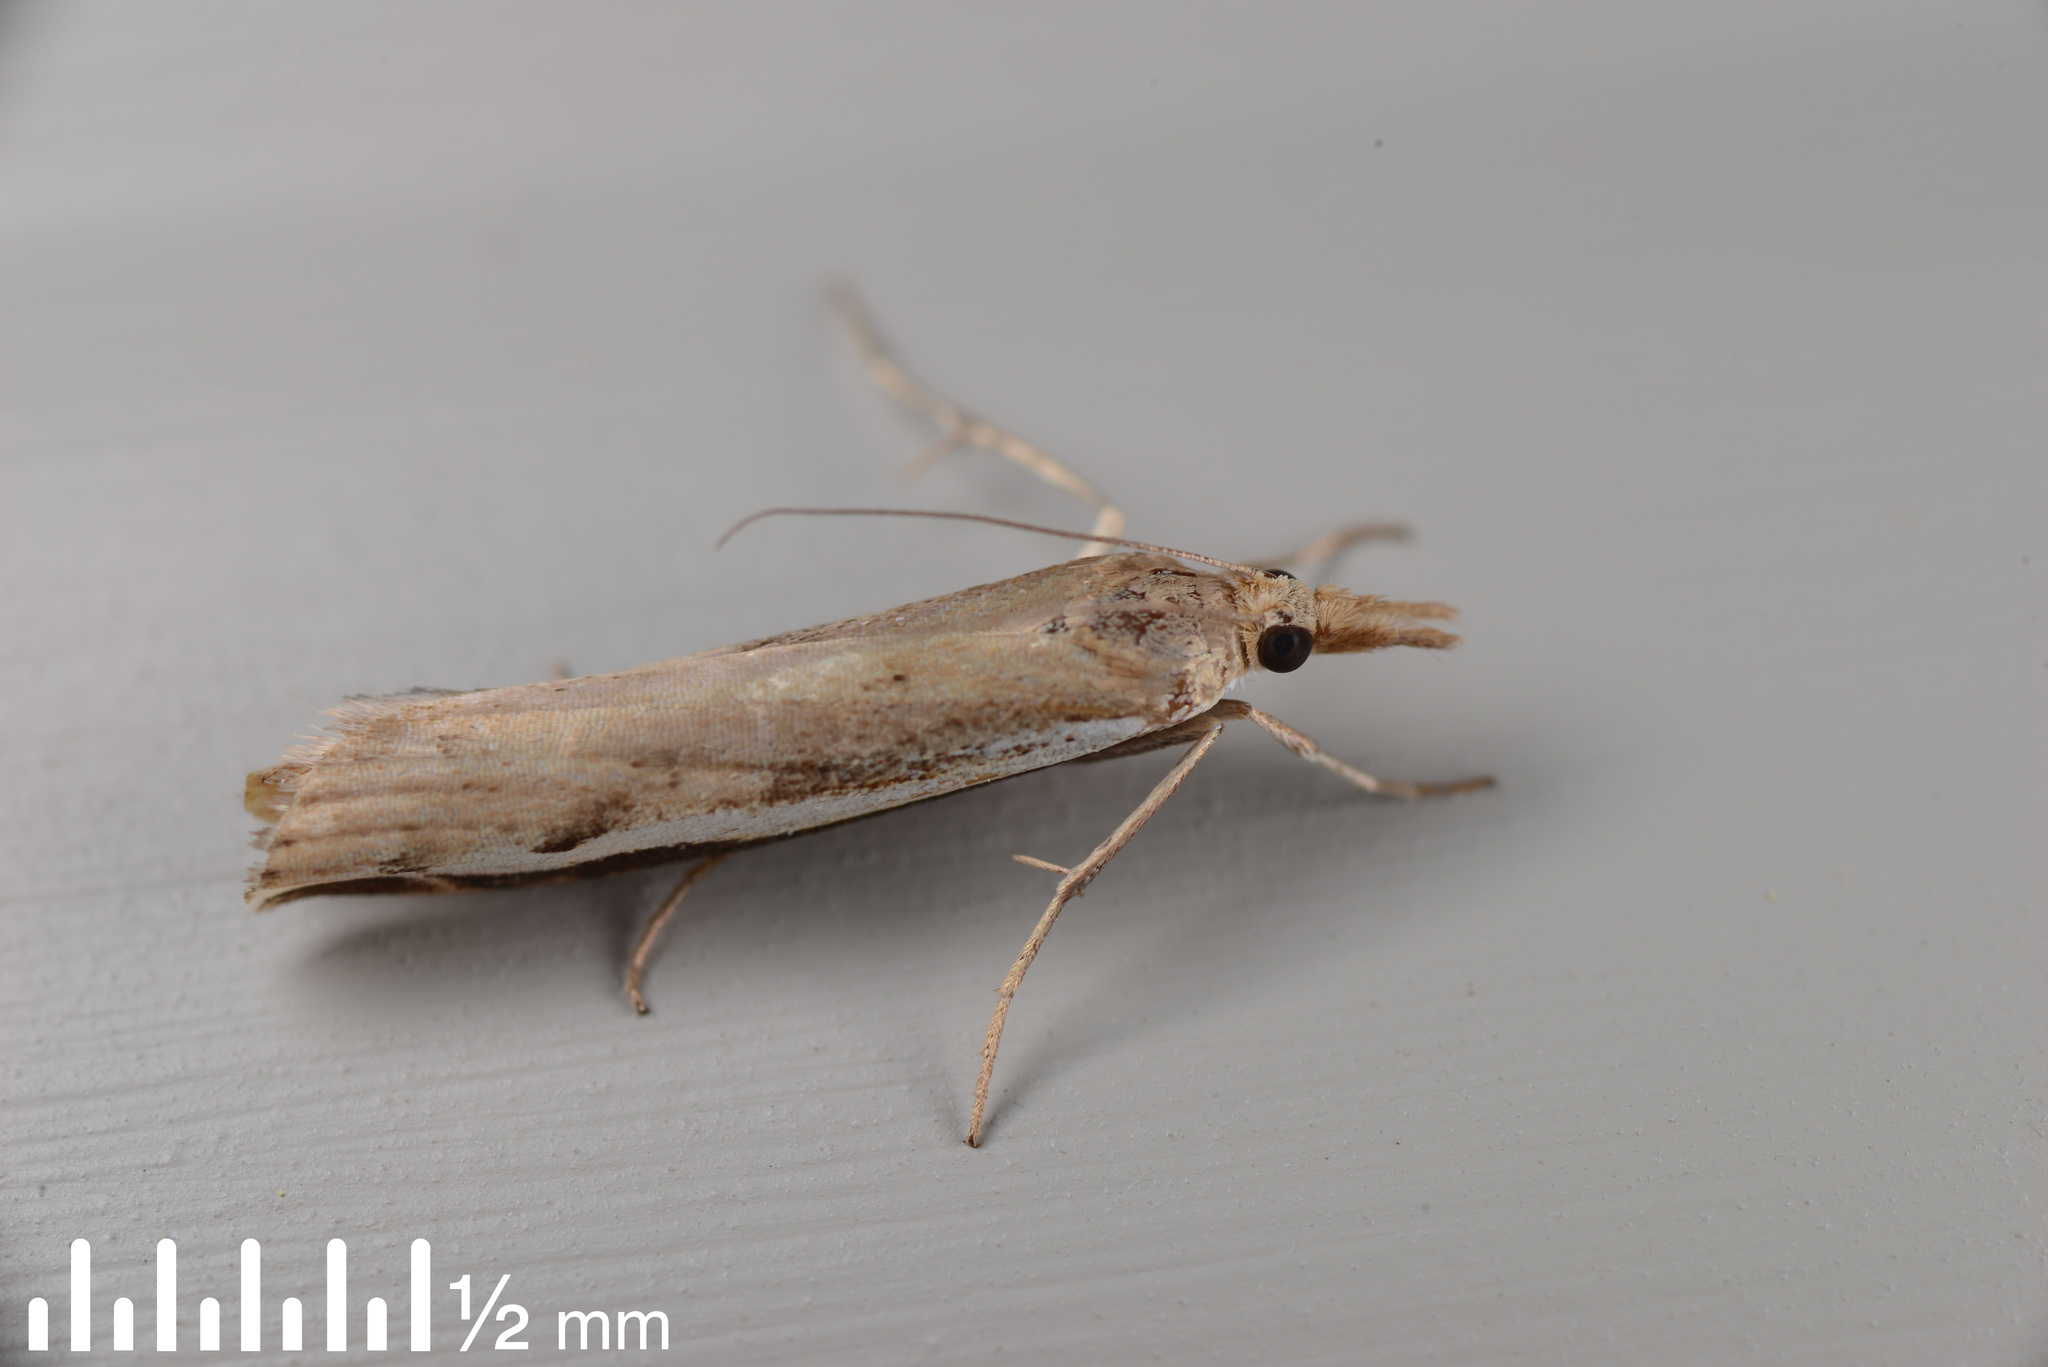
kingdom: Animalia
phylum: Arthropoda
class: Insecta
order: Lepidoptera
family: Crambidae
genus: Orocrambus
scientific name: Orocrambus flexuosellus
